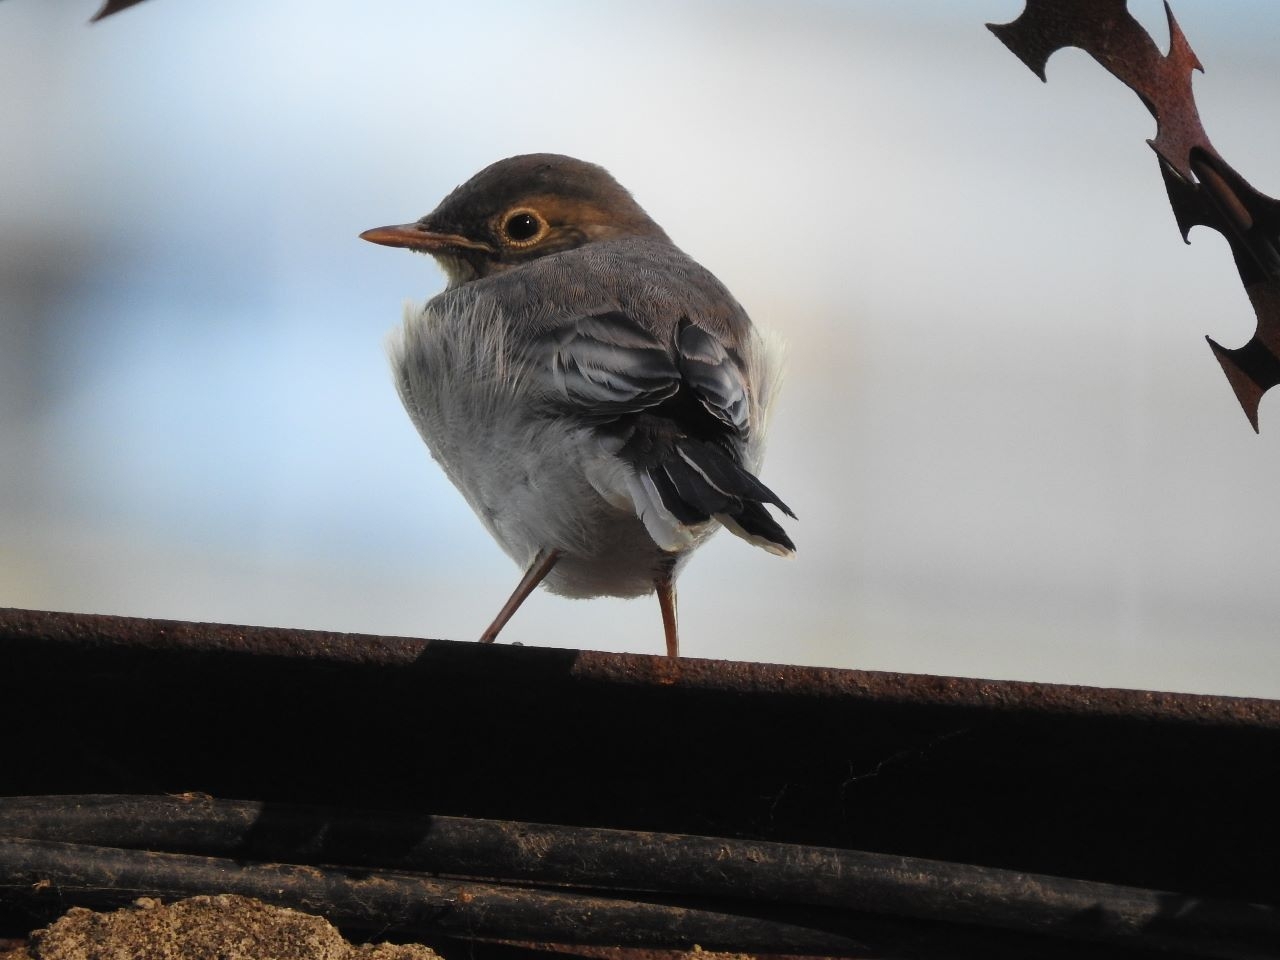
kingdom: Animalia
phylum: Chordata
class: Aves
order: Passeriformes
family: Motacillidae
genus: Motacilla
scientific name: Motacilla alba
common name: White wagtail
